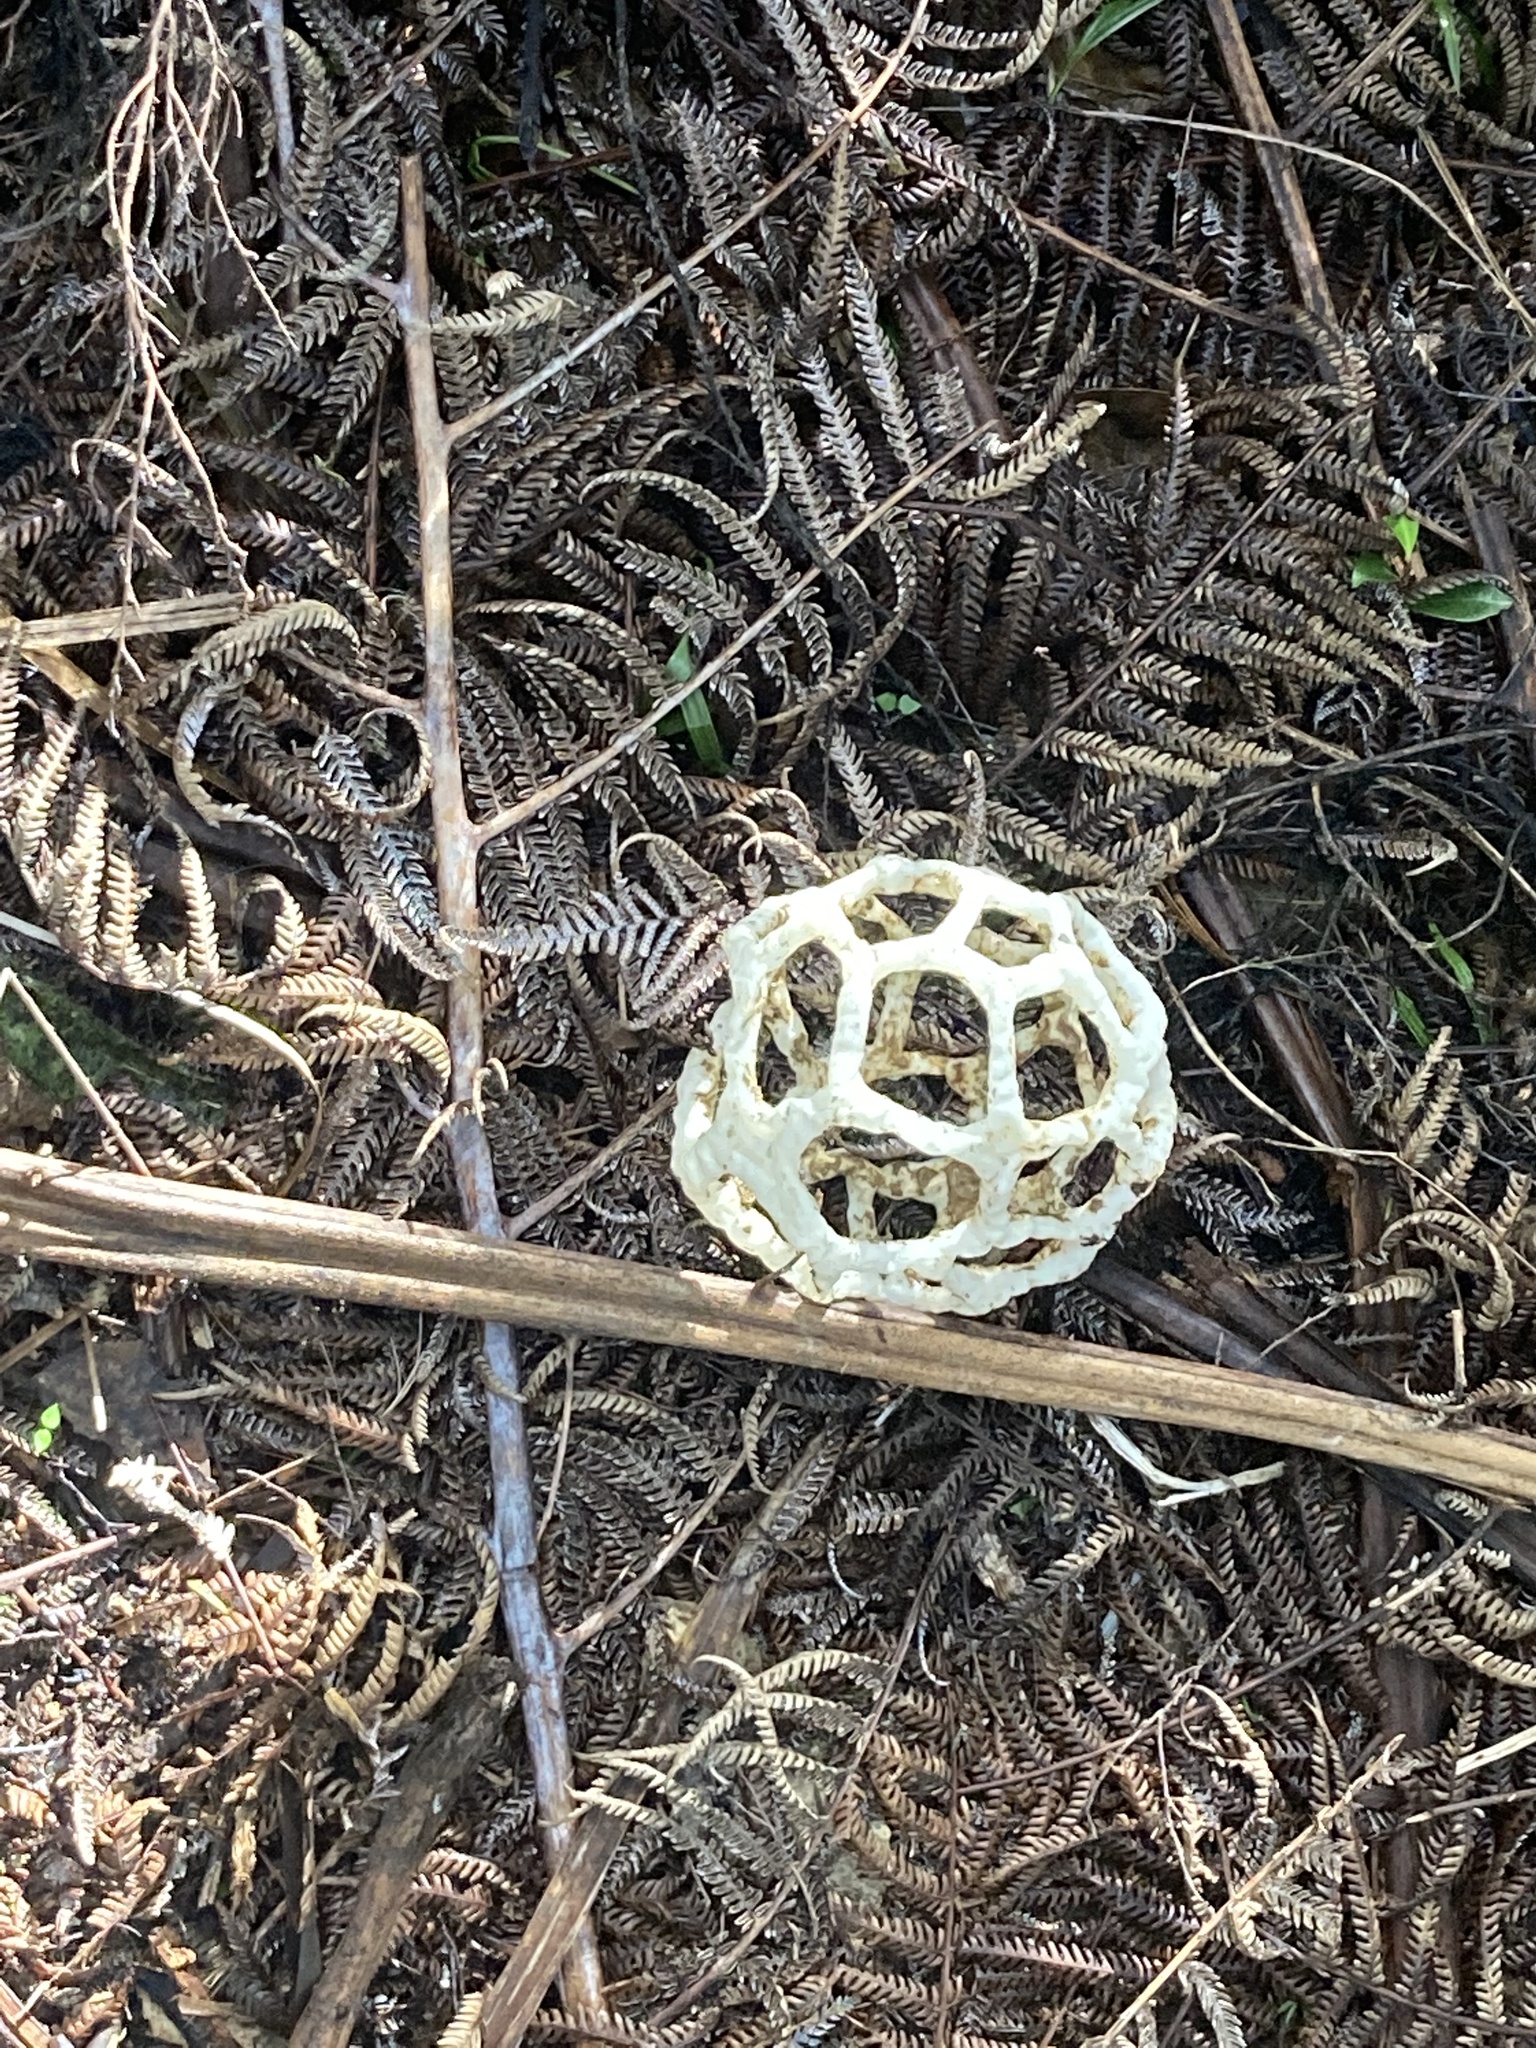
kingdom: Fungi
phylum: Basidiomycota
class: Agaricomycetes
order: Phallales
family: Phallaceae
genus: Ileodictyon
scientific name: Ileodictyon cibarium
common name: Basket fungus
